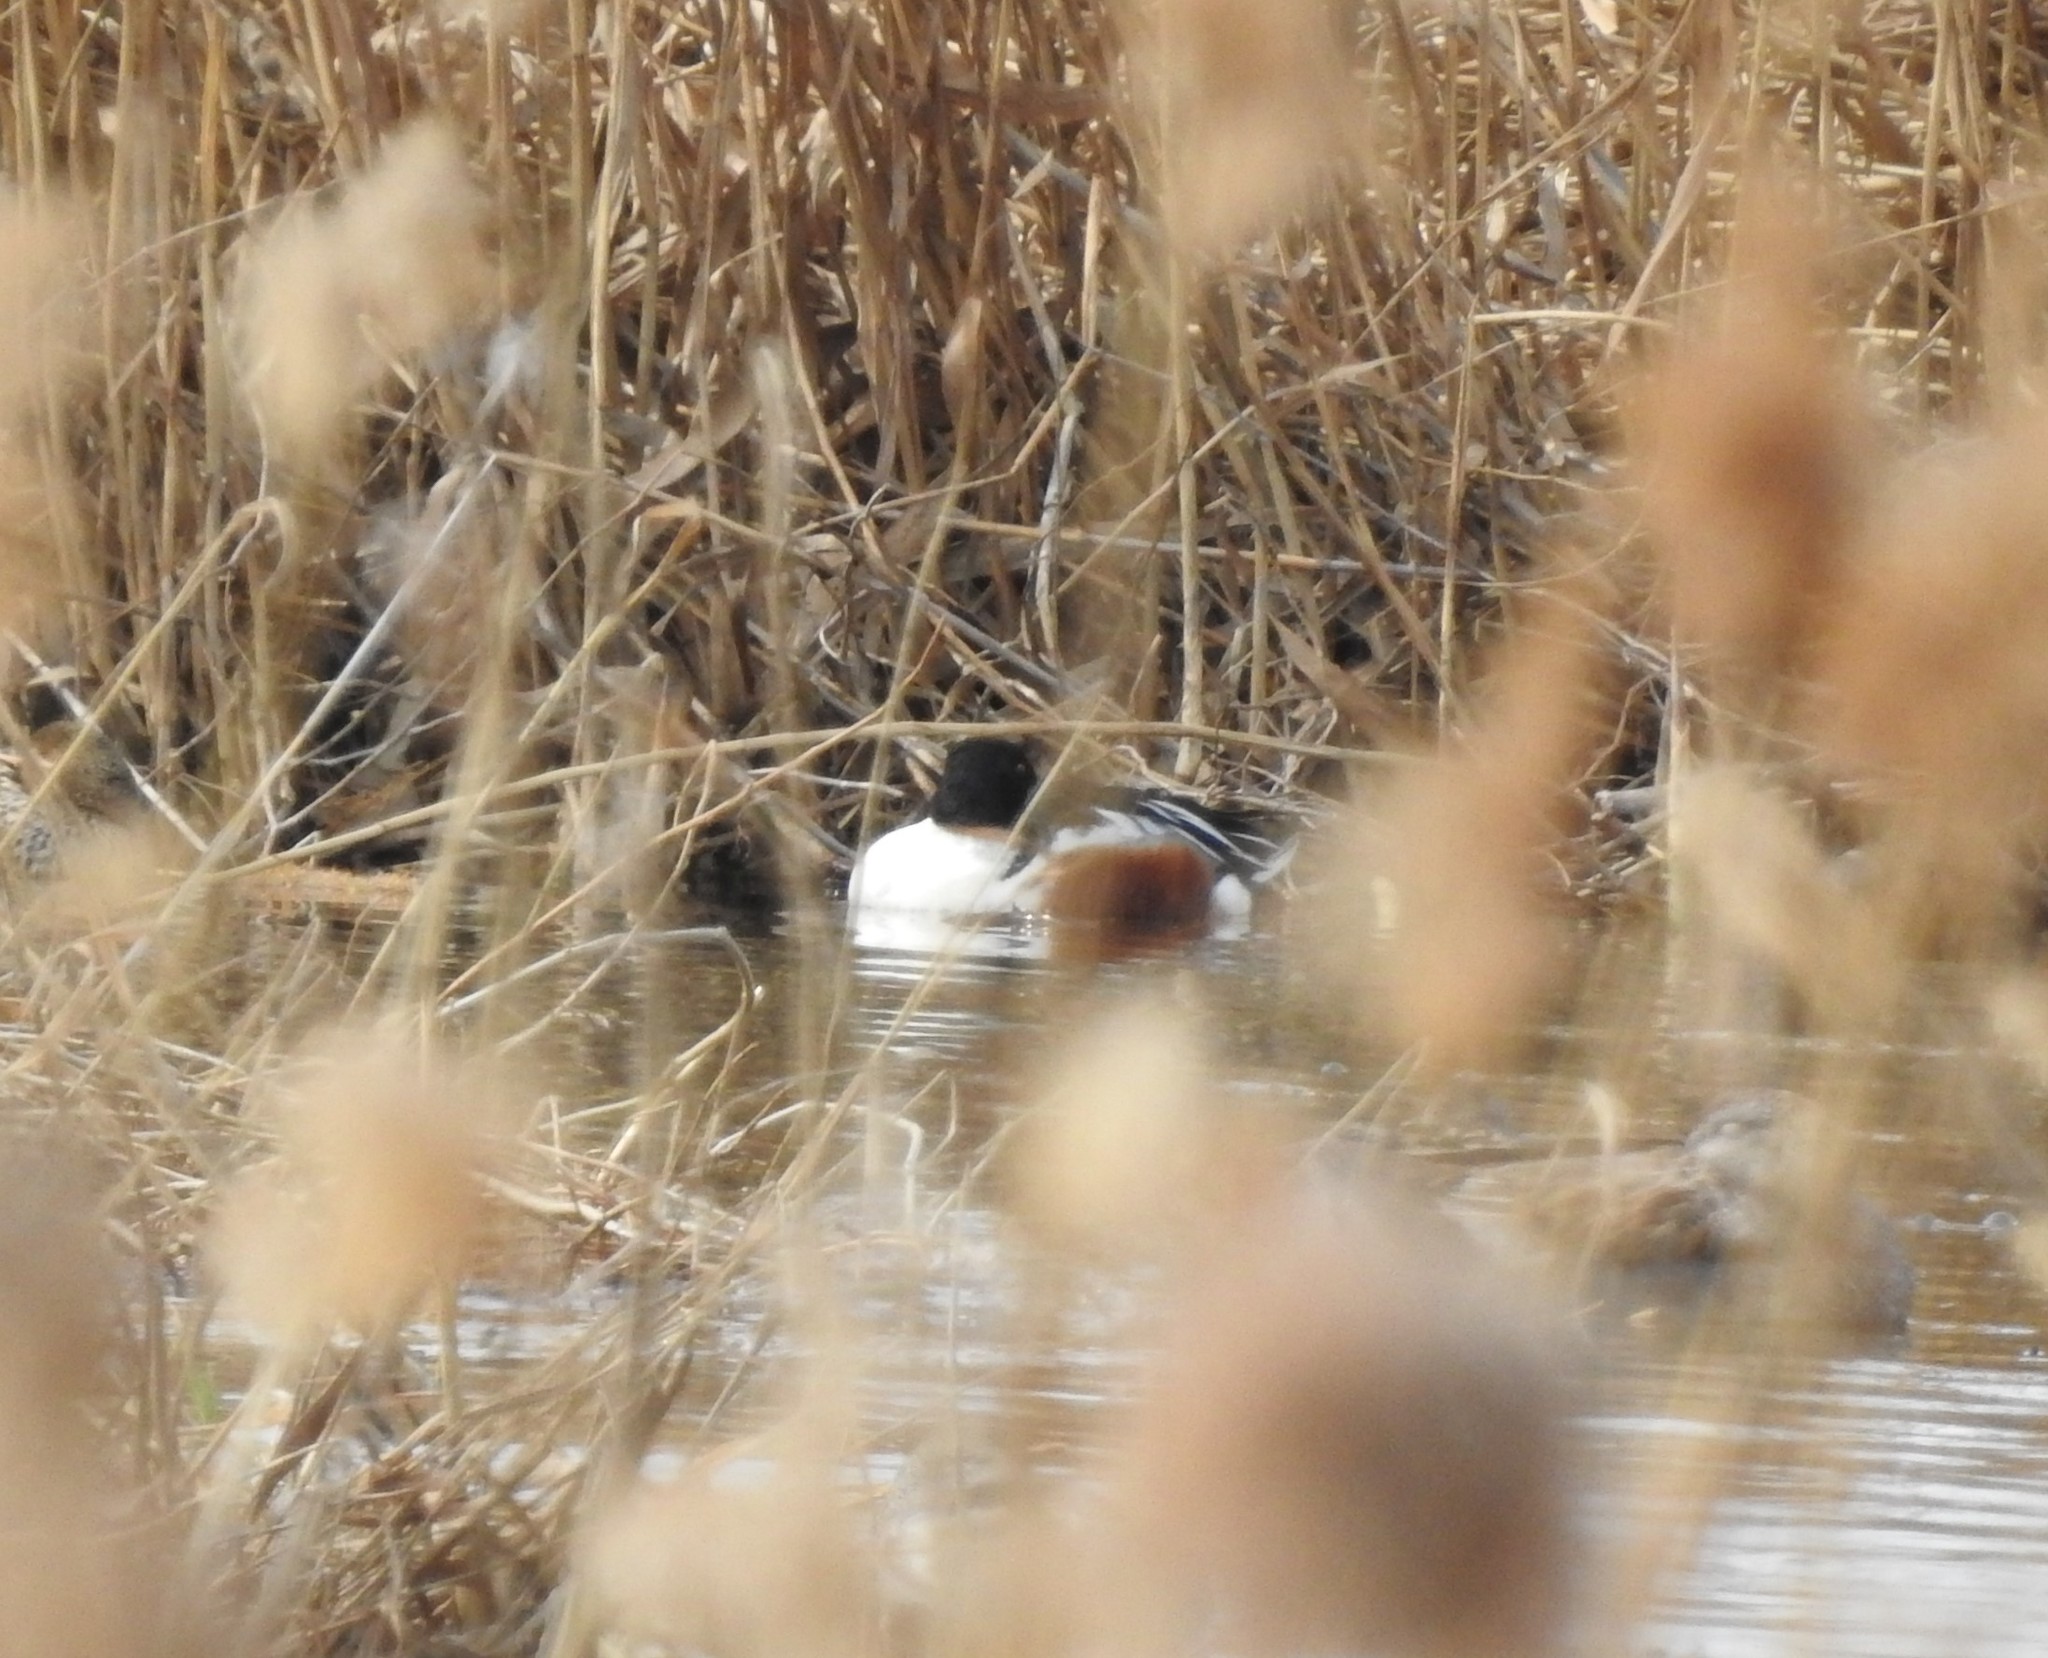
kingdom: Animalia
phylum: Chordata
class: Aves
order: Anseriformes
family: Anatidae
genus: Spatula
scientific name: Spatula clypeata
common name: Northern shoveler
